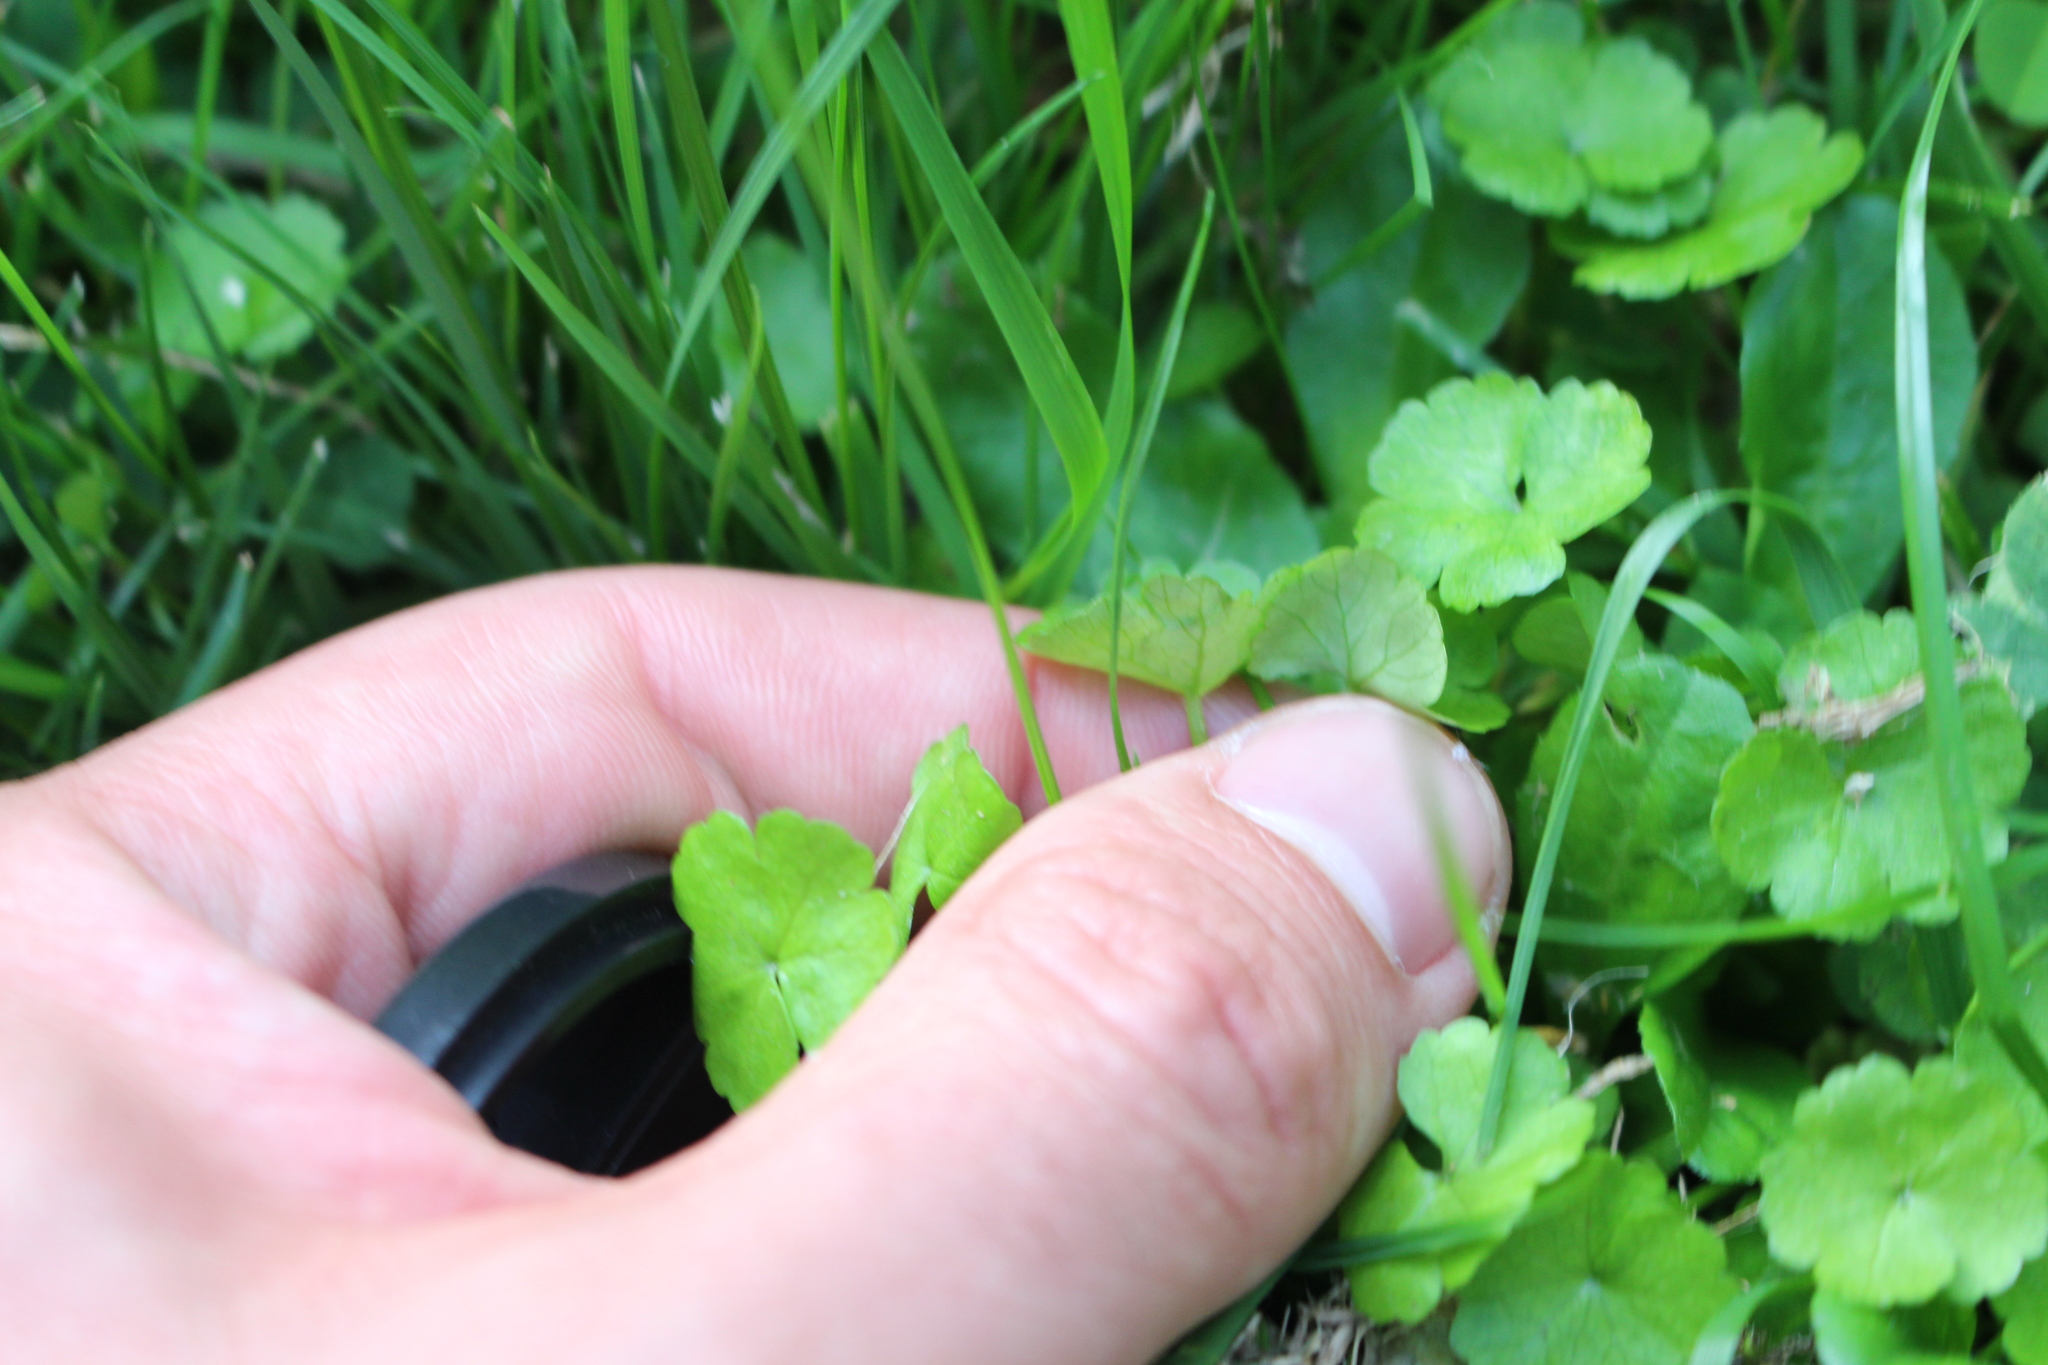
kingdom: Plantae
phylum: Tracheophyta
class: Magnoliopsida
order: Apiales
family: Araliaceae
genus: Hydrocotyle
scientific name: Hydrocotyle heteromeria
